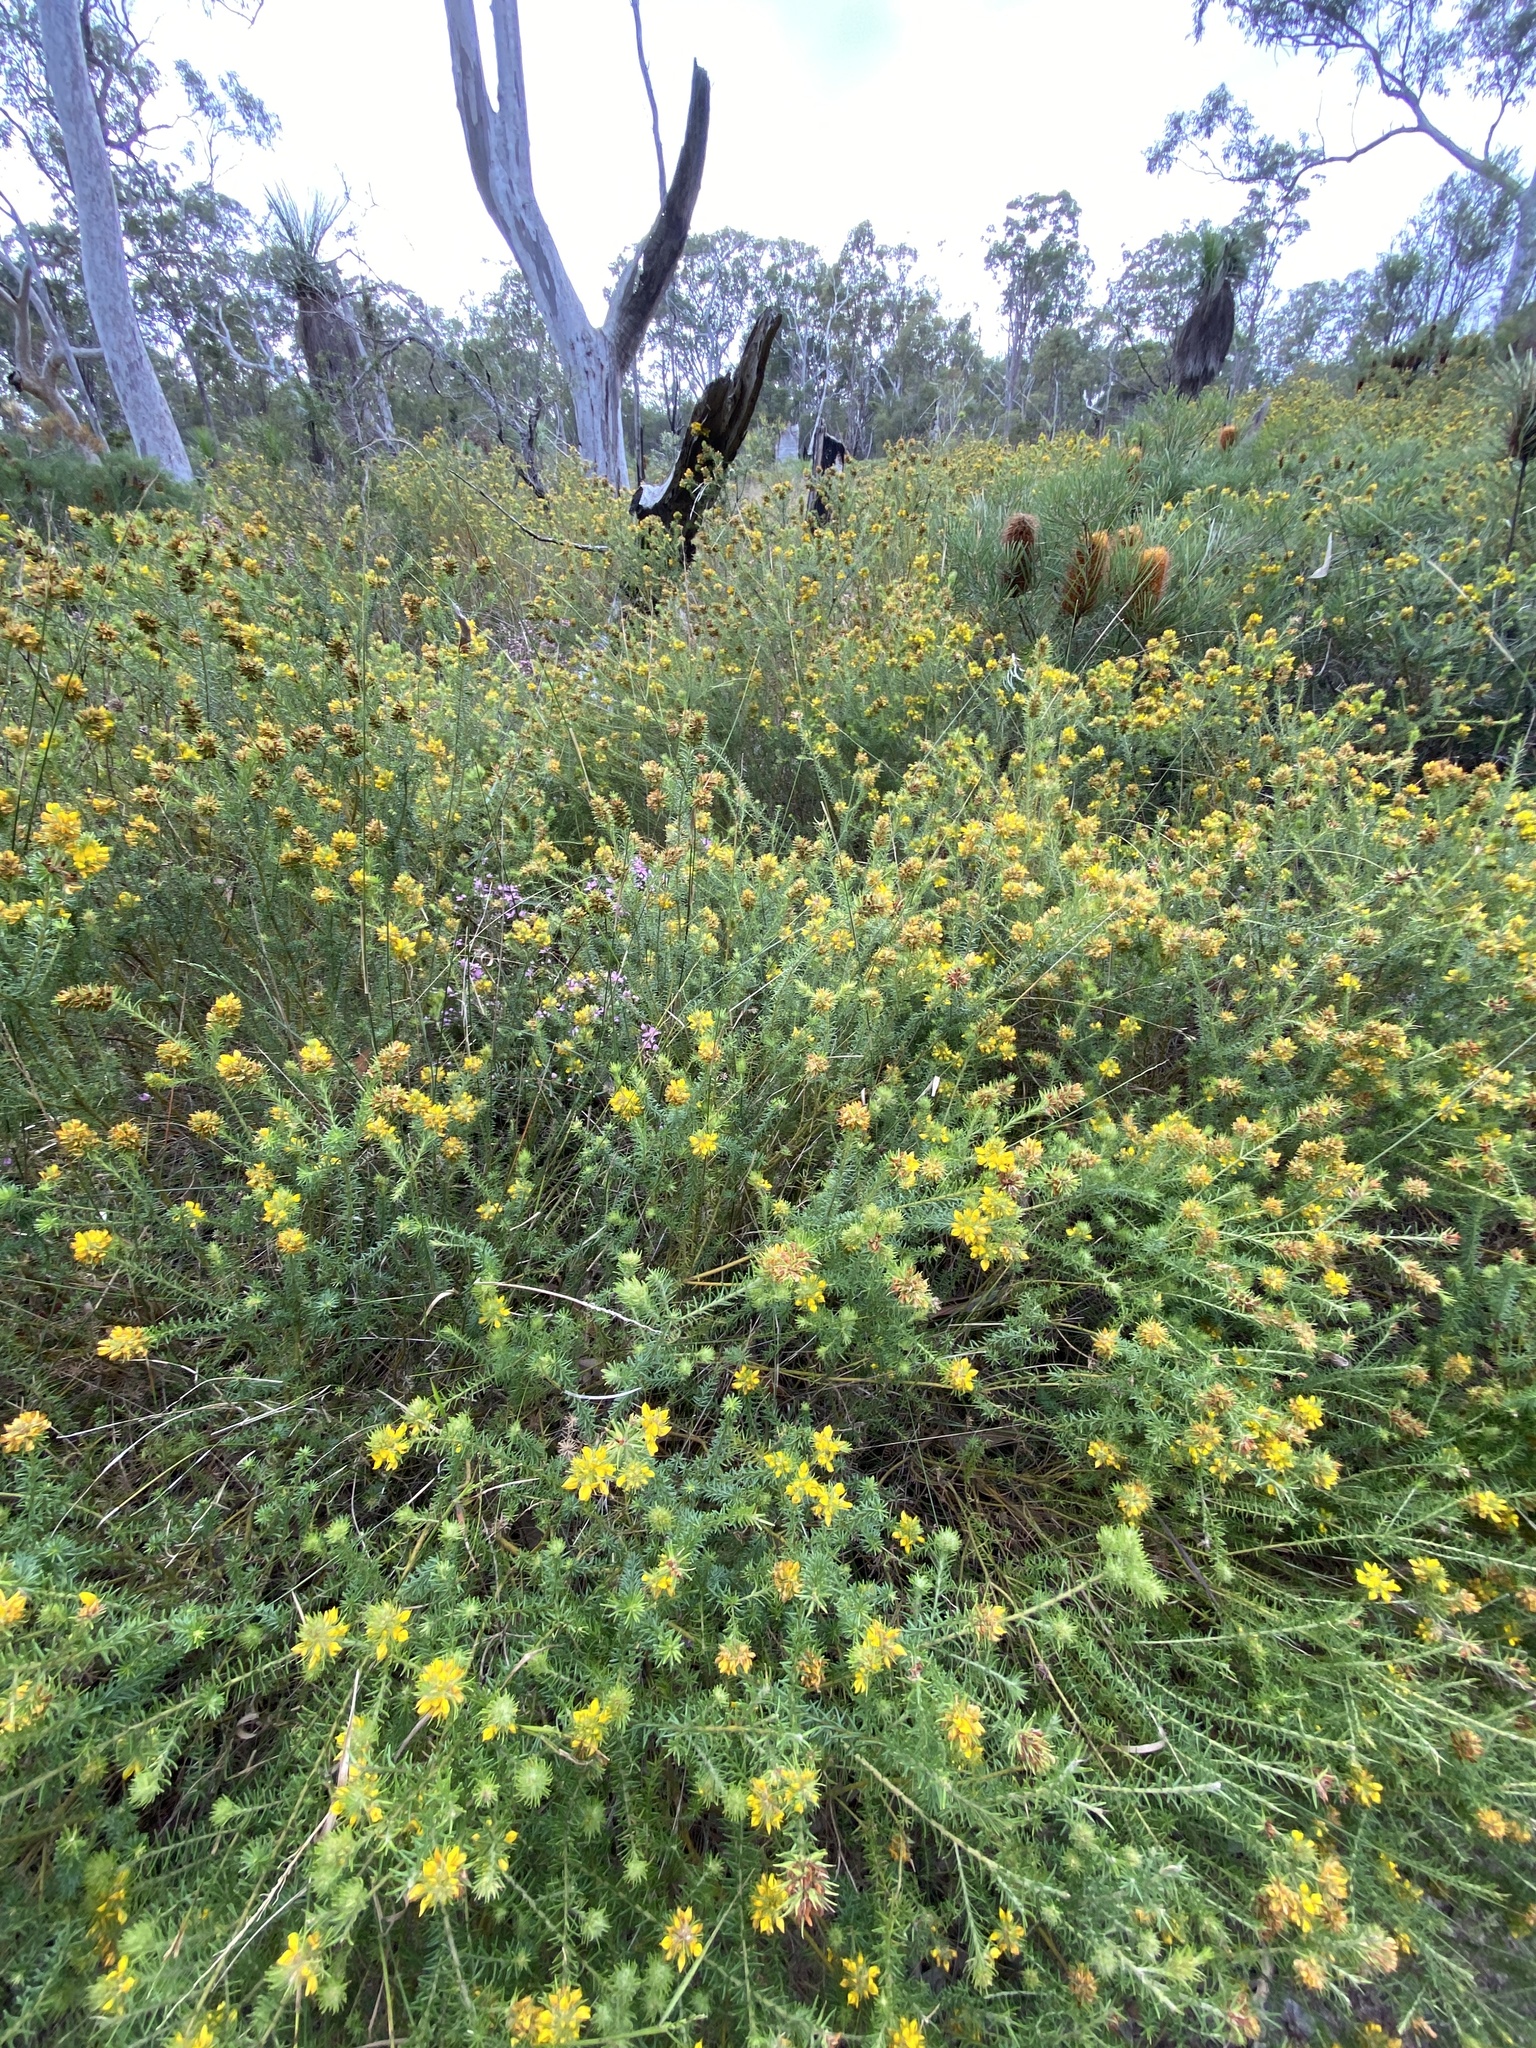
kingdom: Plantae
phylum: Tracheophyta
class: Magnoliopsida
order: Fabales
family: Fabaceae
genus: Phyllota
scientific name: Phyllota phylicoides
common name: Heath phyllota
